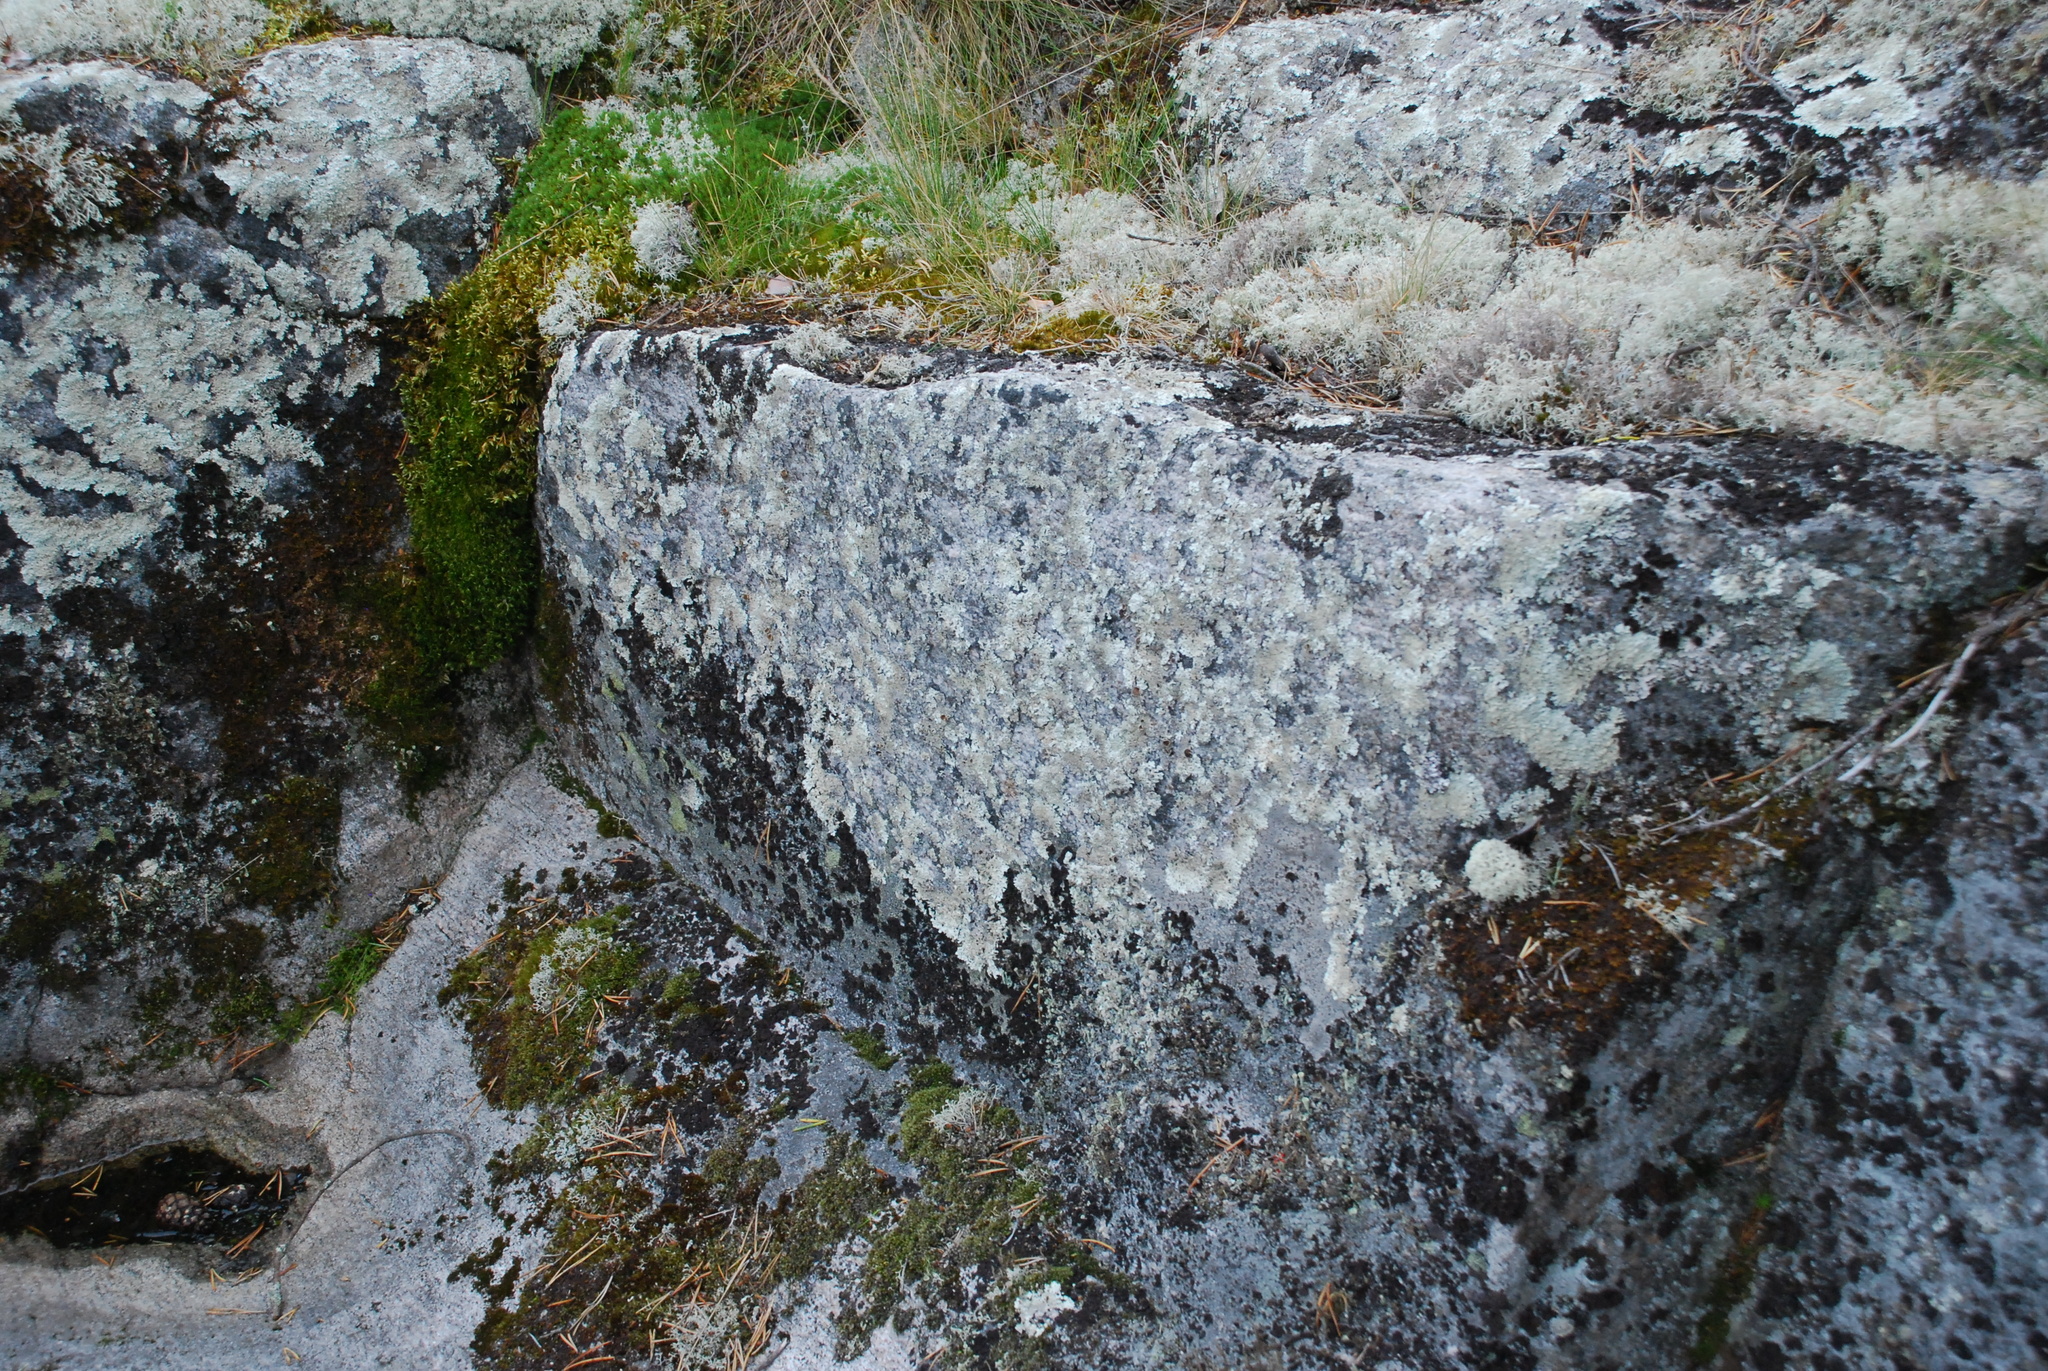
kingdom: Fungi
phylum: Ascomycota
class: Lecanoromycetes
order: Lecanorales
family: Parmeliaceae
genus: Arctoparmelia
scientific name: Arctoparmelia centrifuga
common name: Concentric ring lichen
